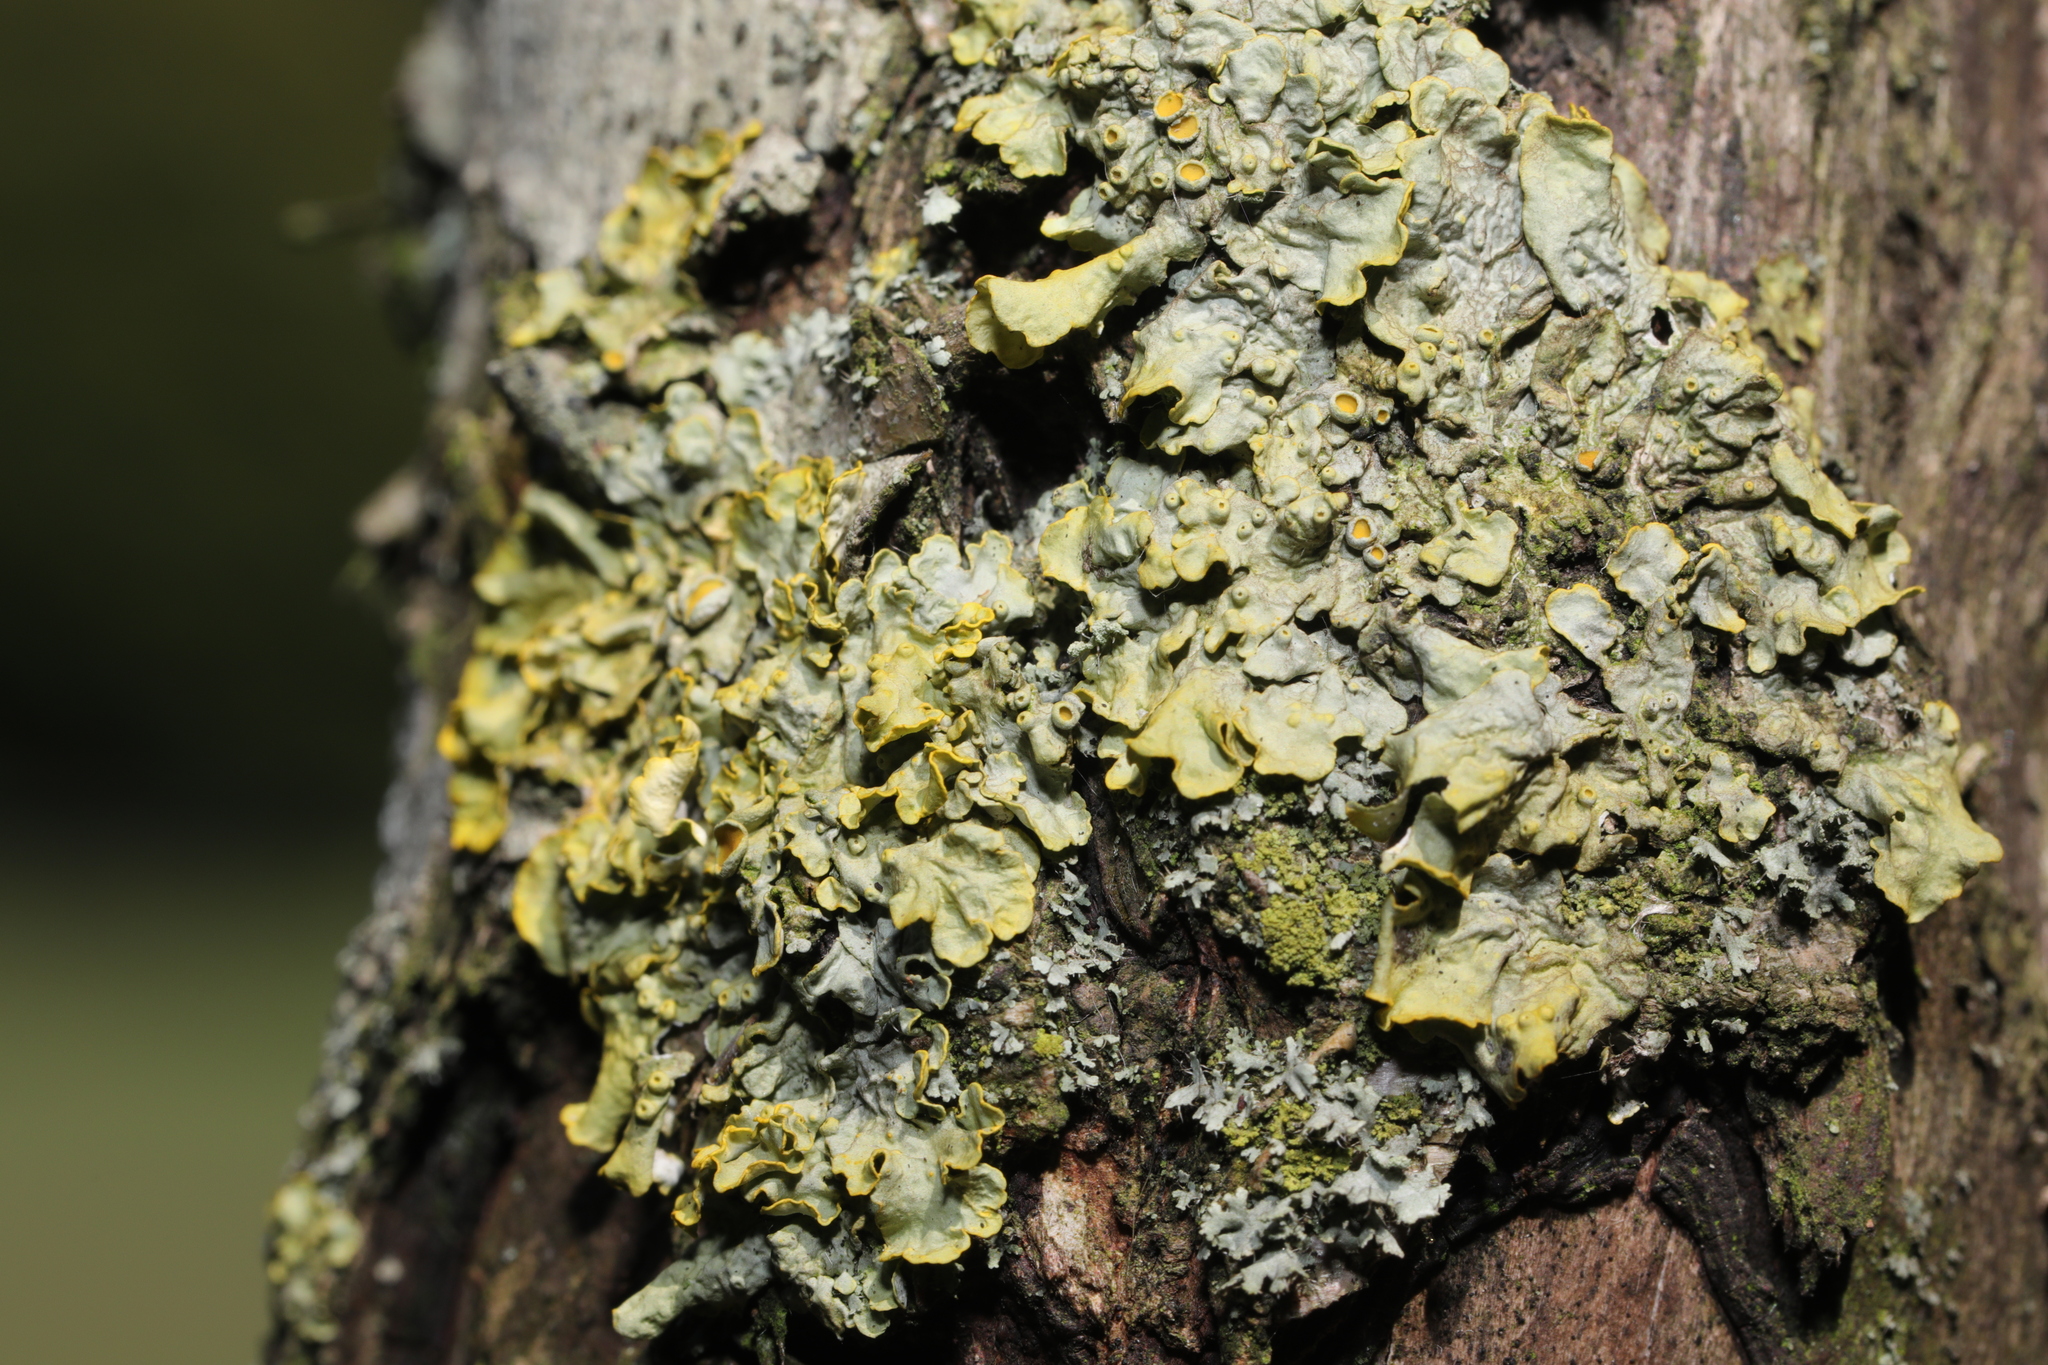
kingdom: Fungi
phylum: Ascomycota
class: Lecanoromycetes
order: Teloschistales
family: Teloschistaceae
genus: Xanthoria
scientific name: Xanthoria parietina
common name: Common orange lichen
